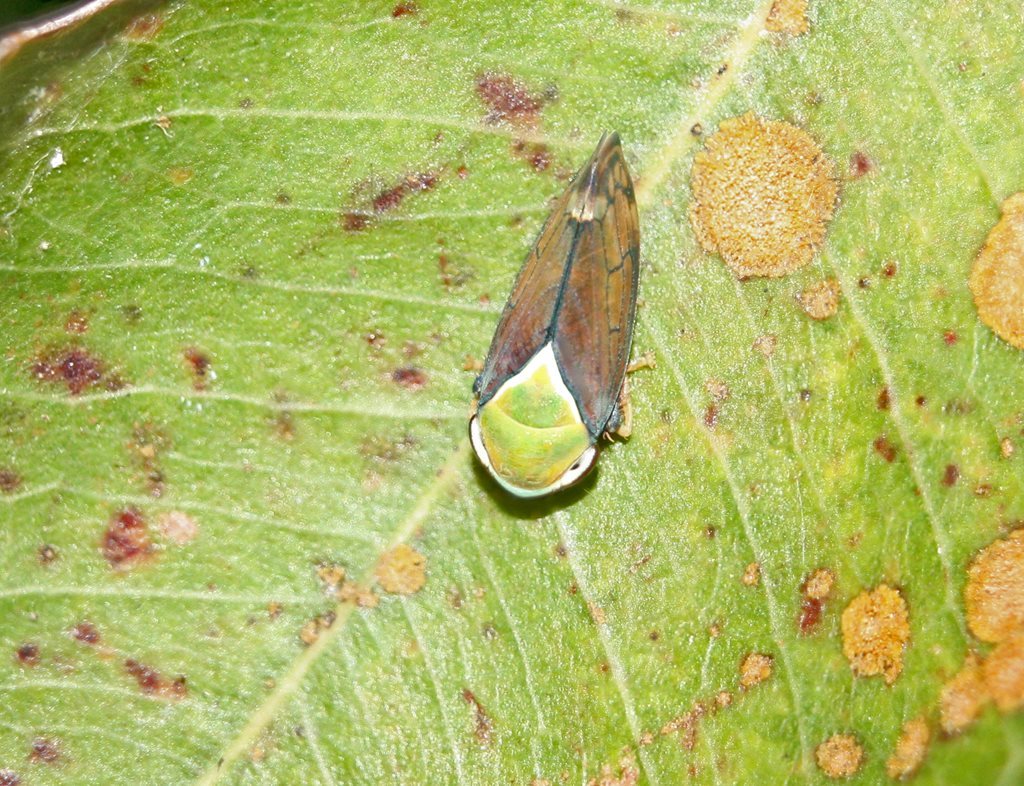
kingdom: Animalia
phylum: Arthropoda
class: Insecta
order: Hemiptera
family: Cicadellidae
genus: Microtartessus
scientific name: Microtartessus idyia
